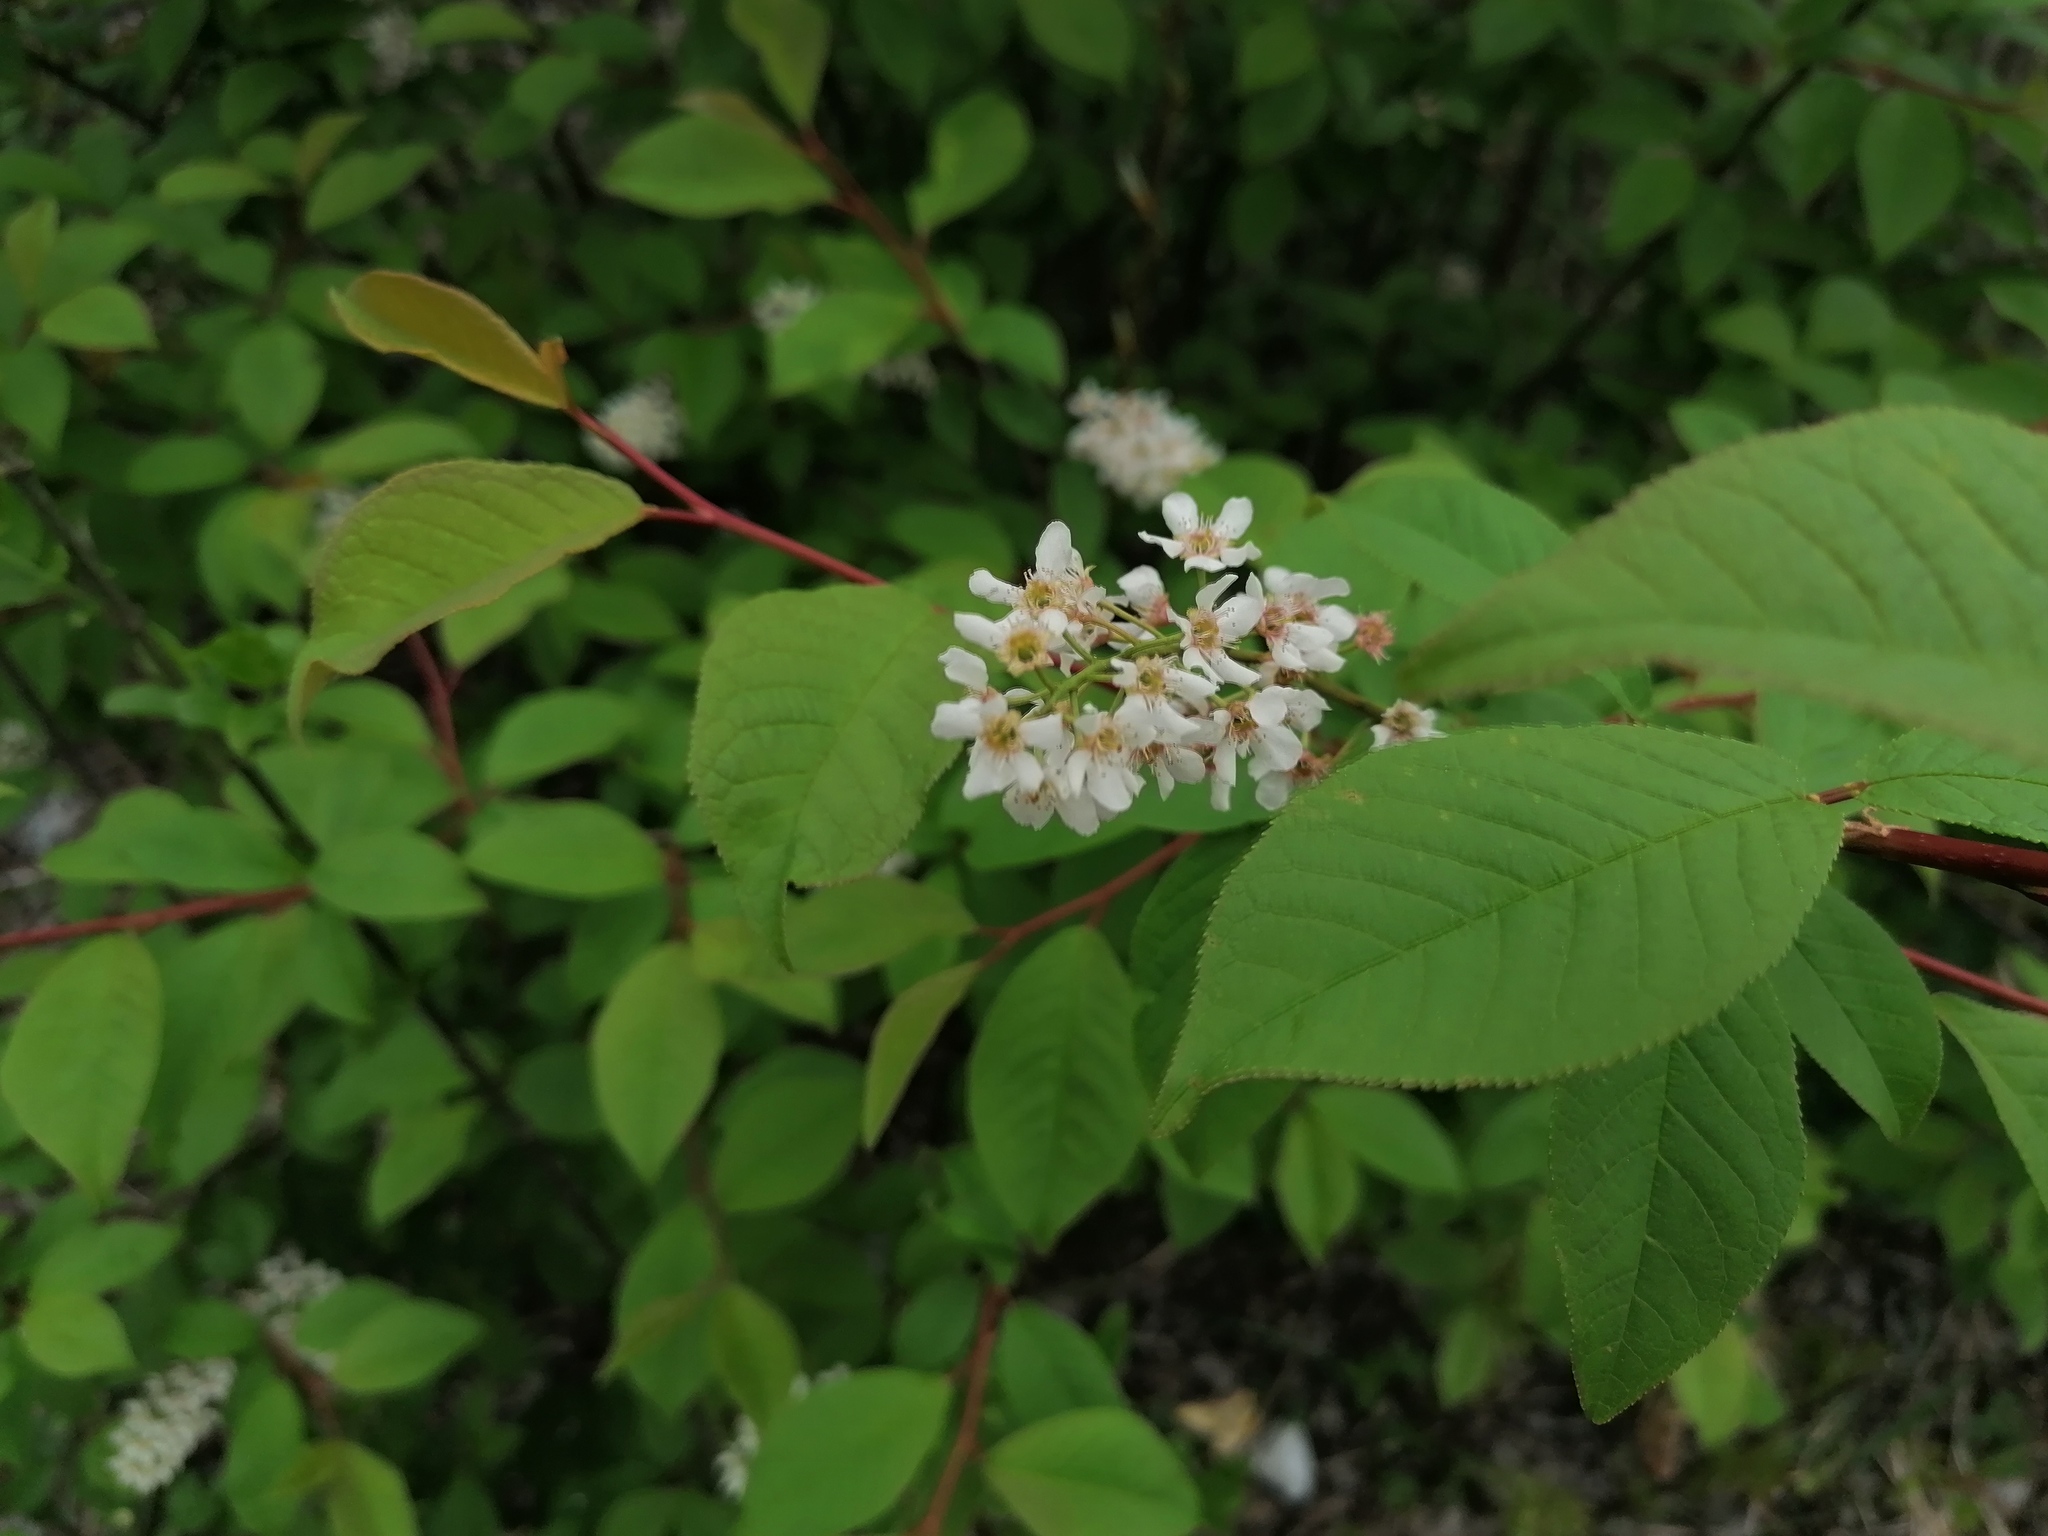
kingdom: Plantae
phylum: Tracheophyta
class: Magnoliopsida
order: Rosales
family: Rosaceae
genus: Prunus
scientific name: Prunus padus
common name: Bird cherry
